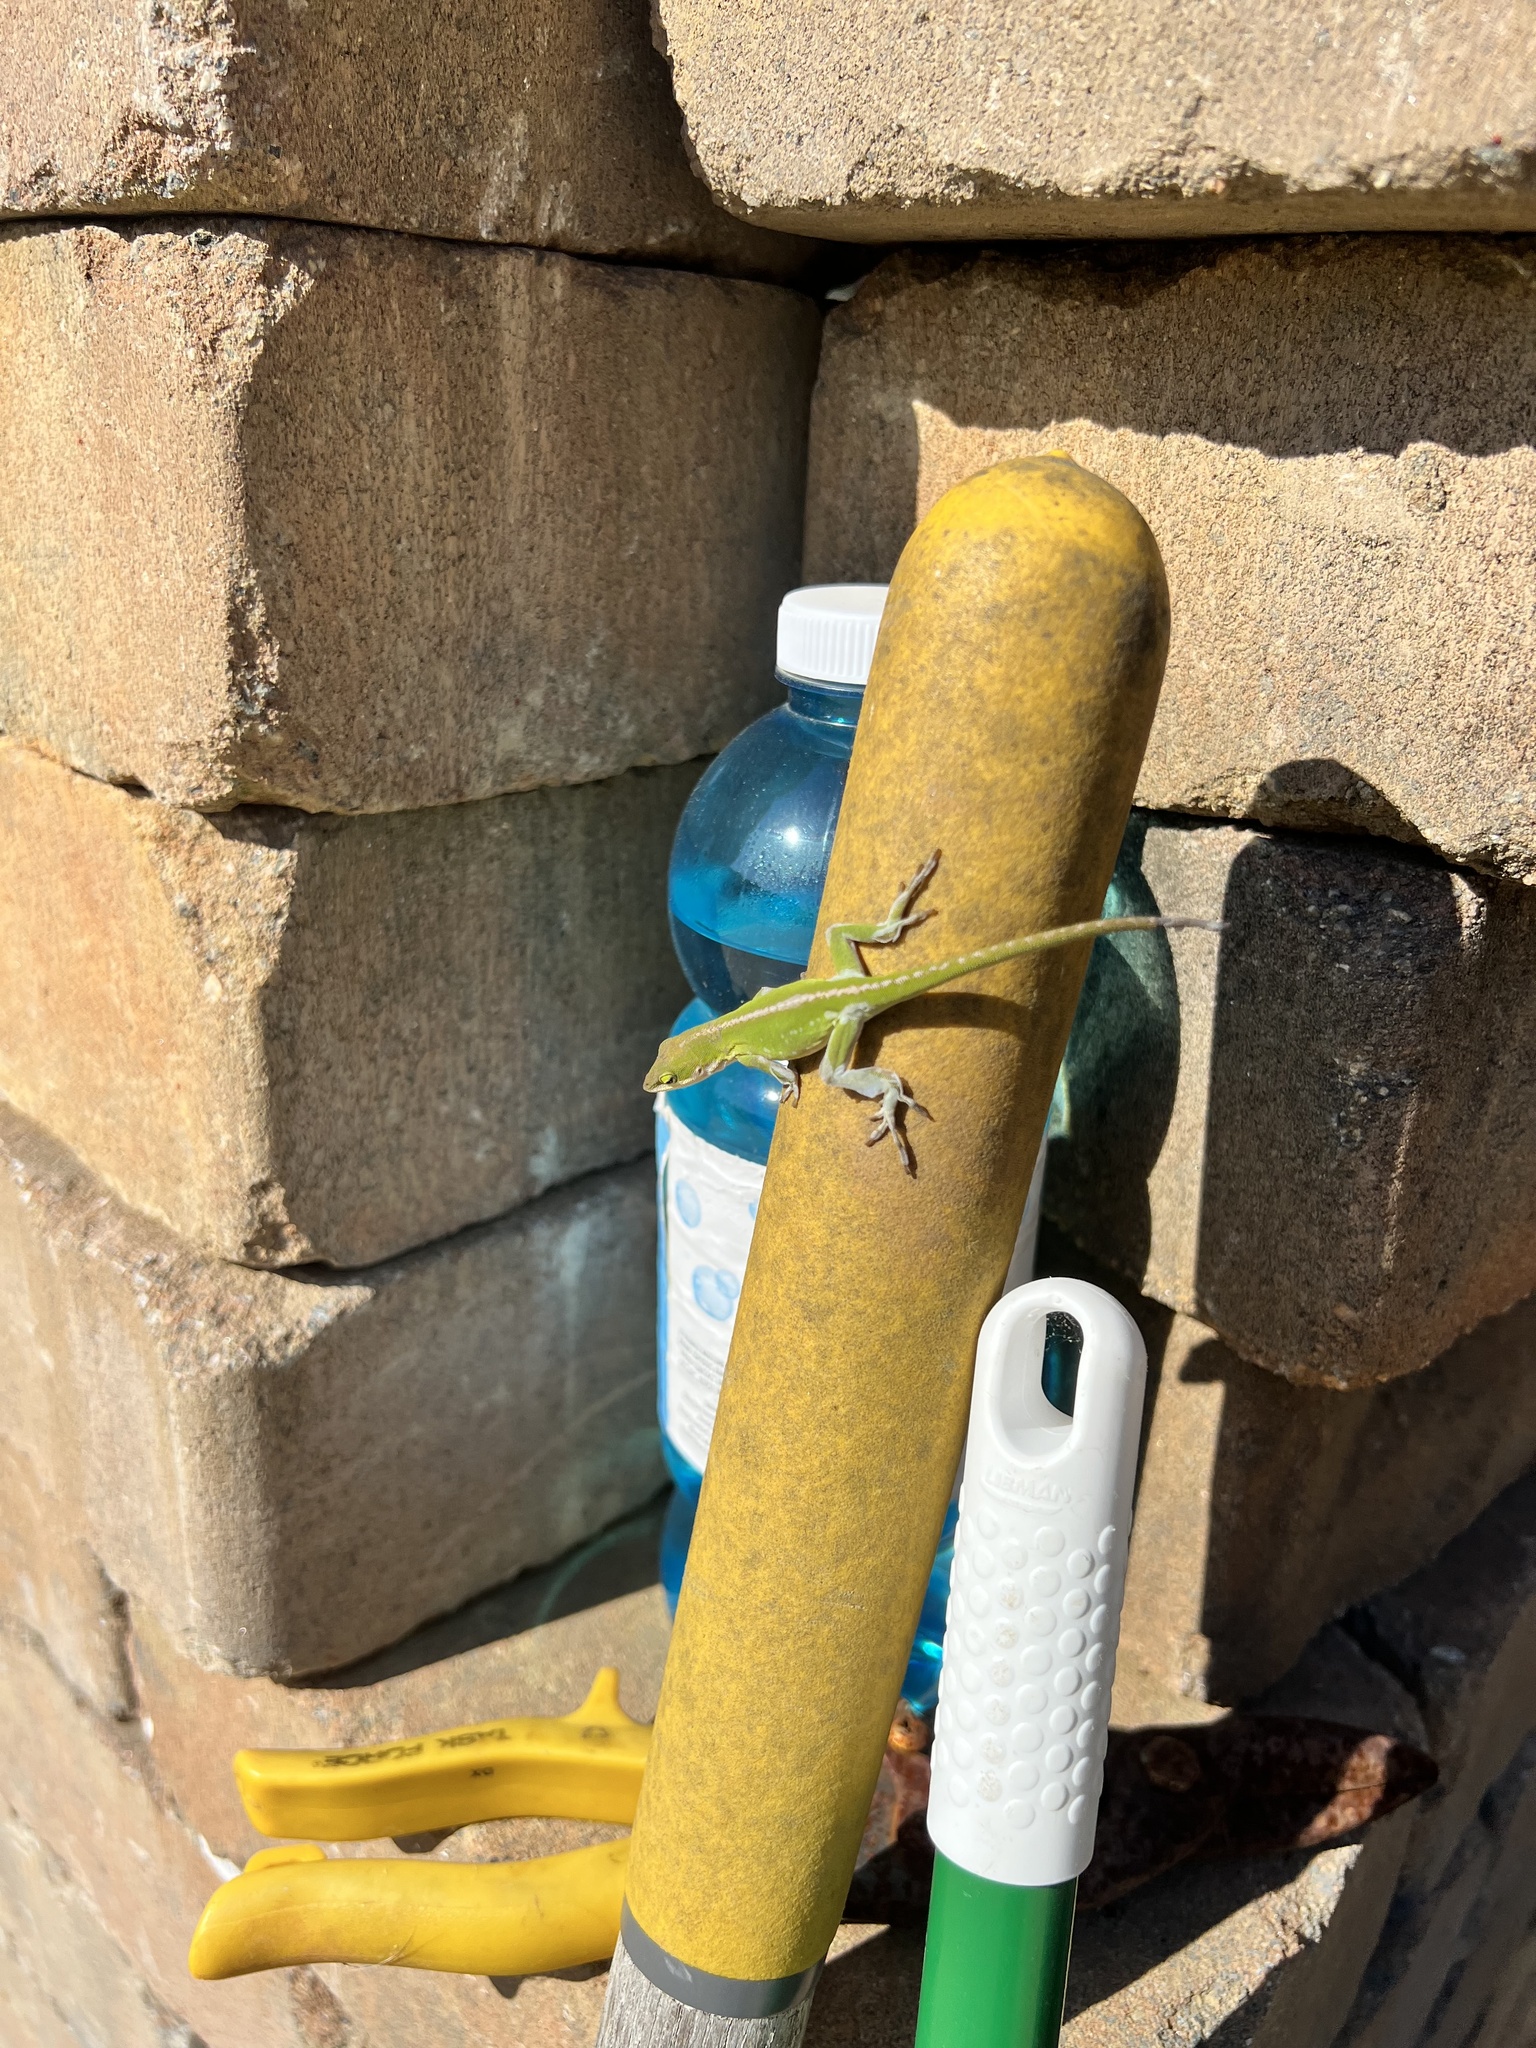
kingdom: Animalia
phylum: Chordata
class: Squamata
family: Dactyloidae
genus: Anolis
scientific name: Anolis carolinensis
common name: Green anole
